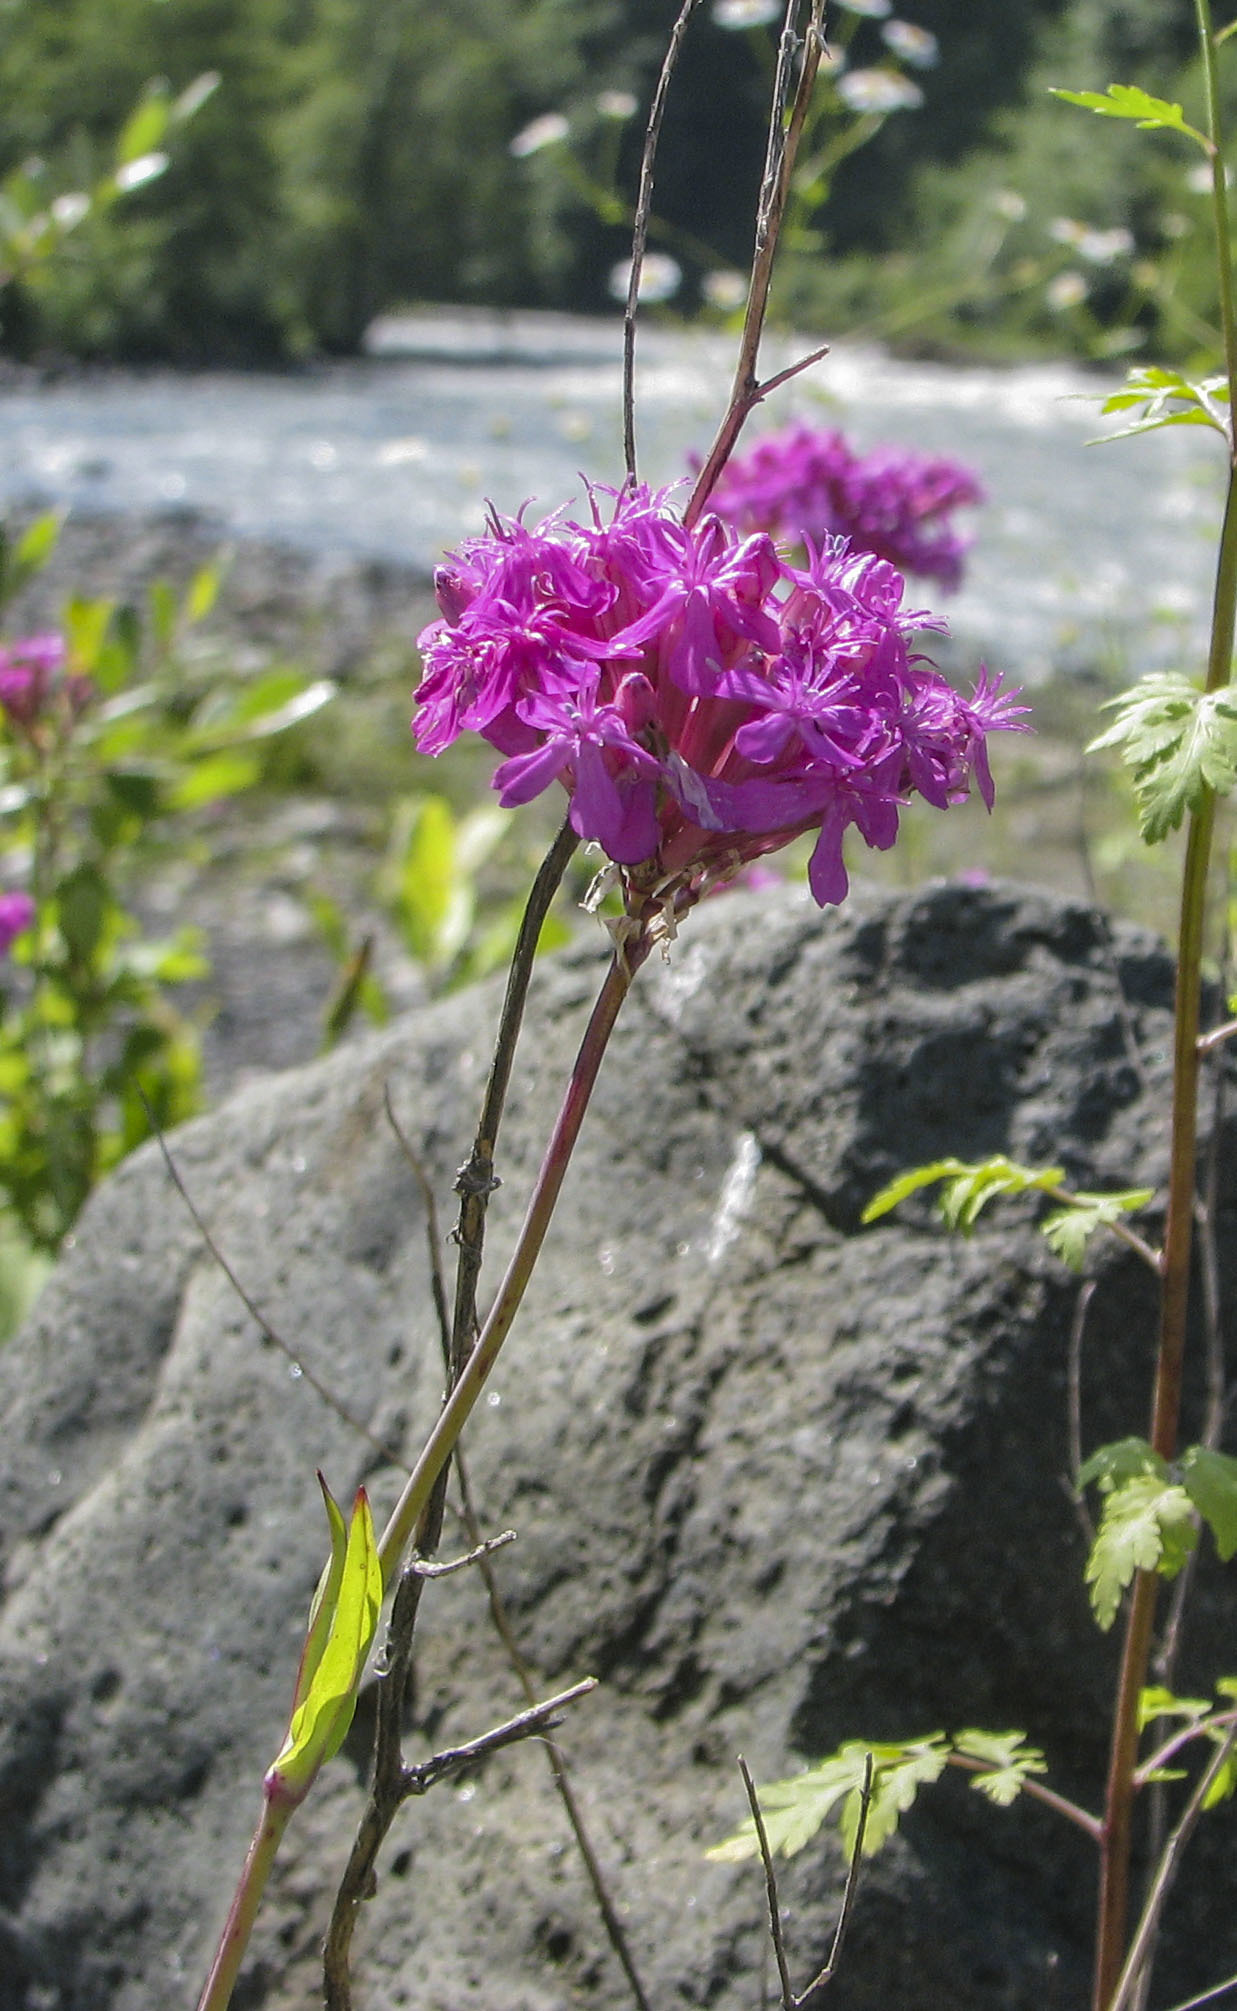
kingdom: Plantae
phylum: Tracheophyta
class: Magnoliopsida
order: Caryophyllales
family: Caryophyllaceae
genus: Atocion
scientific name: Atocion compactum
